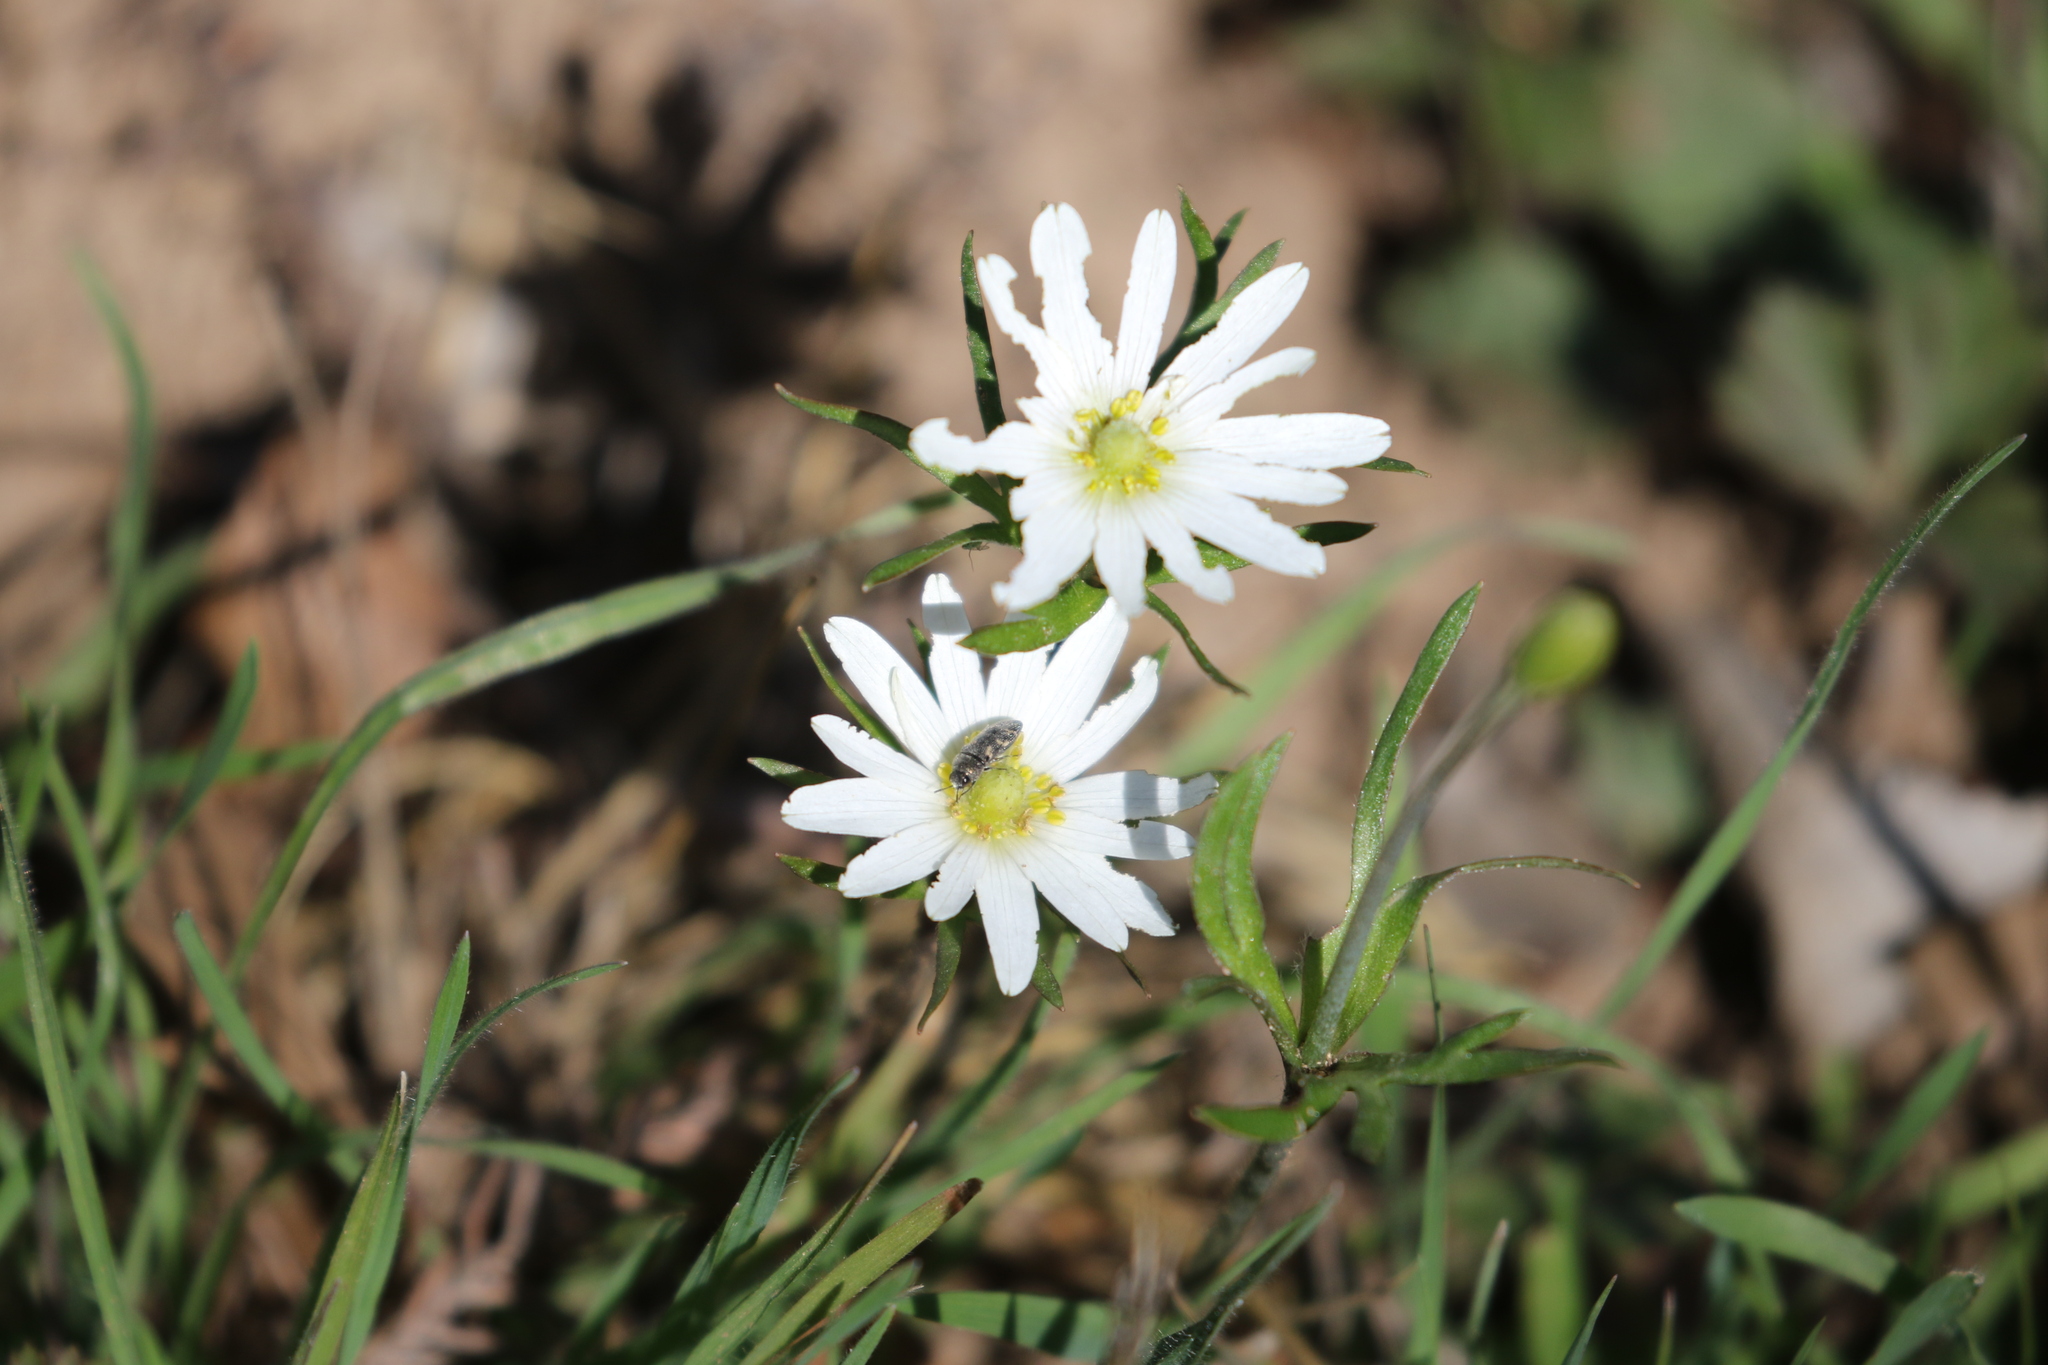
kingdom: Plantae
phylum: Tracheophyta
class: Magnoliopsida
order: Ranunculales
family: Ranunculaceae
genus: Anemone
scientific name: Anemone berlandieri
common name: Ten-petal anemone
